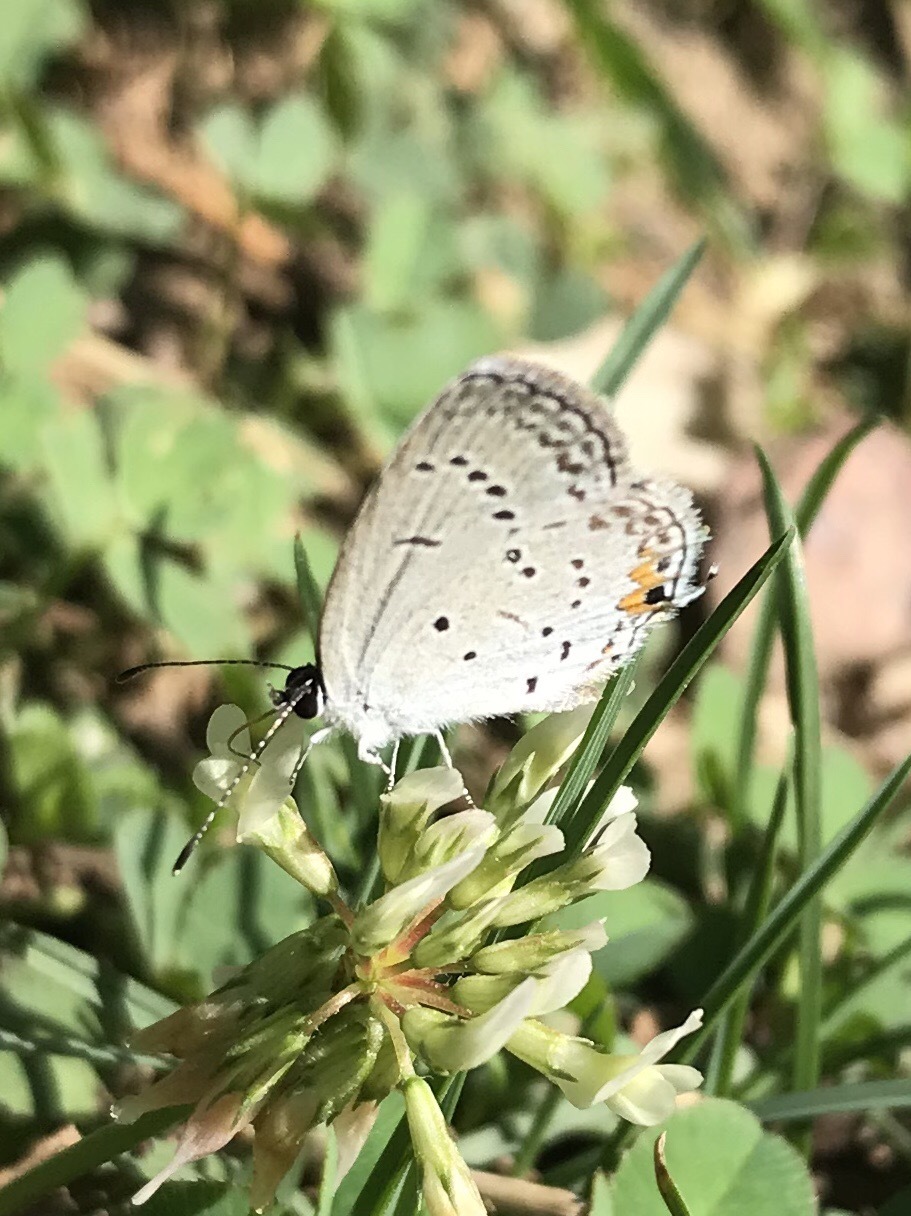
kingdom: Animalia
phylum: Arthropoda
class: Insecta
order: Lepidoptera
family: Lycaenidae
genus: Elkalyce
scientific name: Elkalyce comyntas
